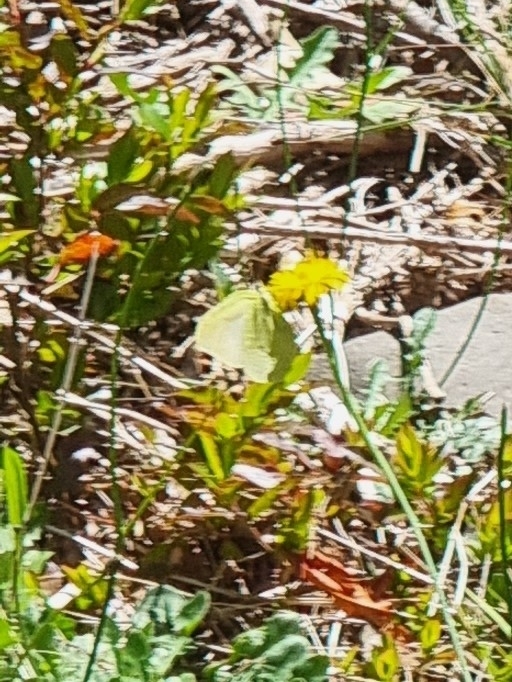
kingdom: Animalia
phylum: Arthropoda
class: Insecta
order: Lepidoptera
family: Pieridae
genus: Gonepteryx
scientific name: Gonepteryx maderensis
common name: Madeiran brimstone
